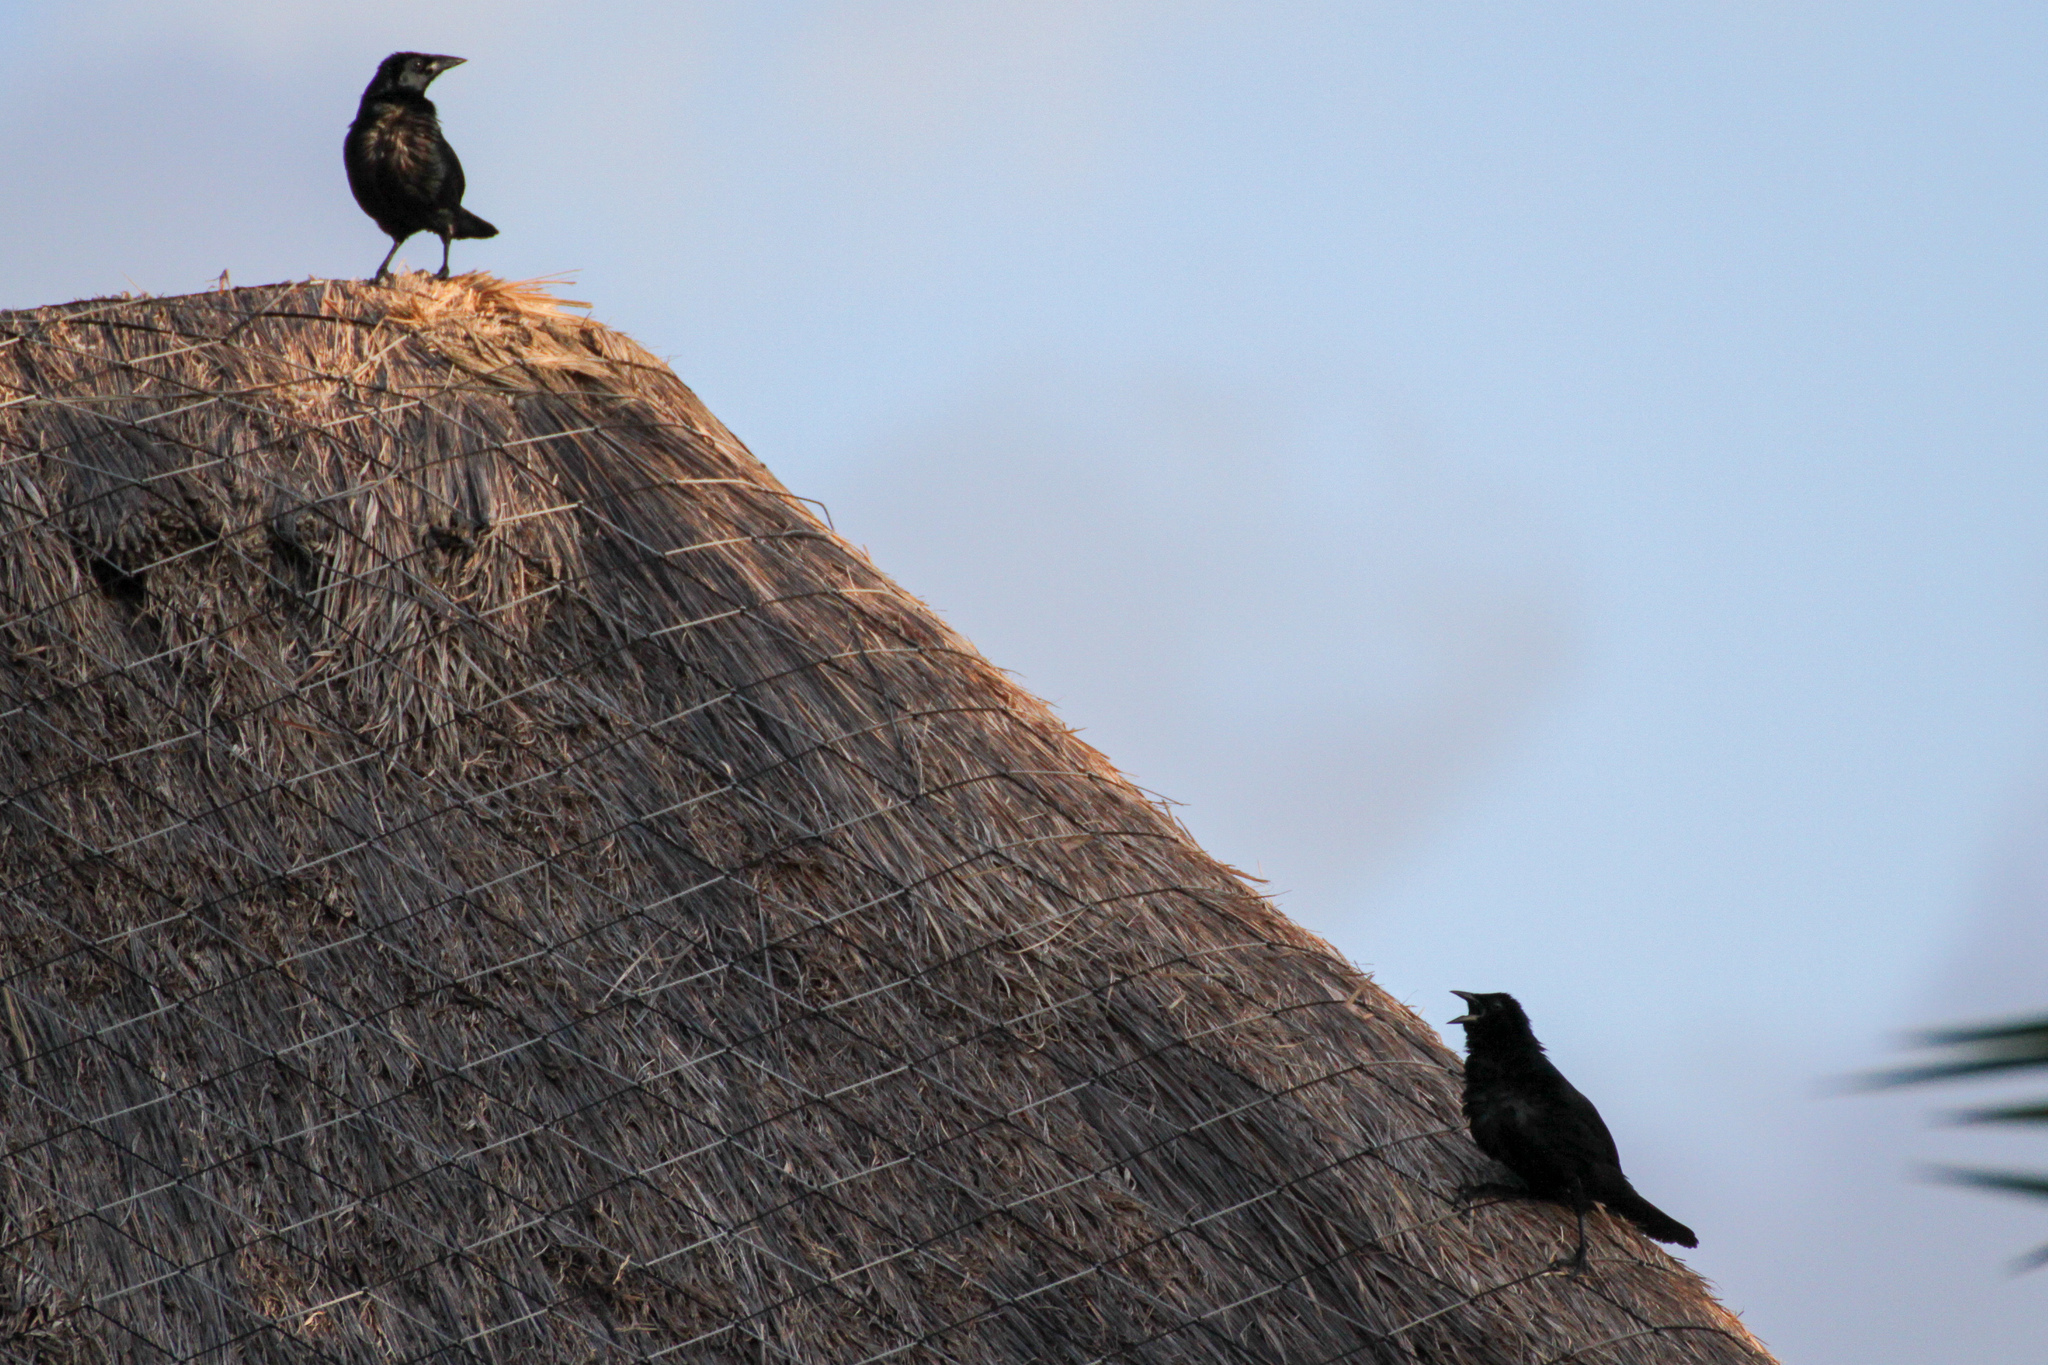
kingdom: Animalia
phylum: Chordata
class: Aves
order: Passeriformes
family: Icteridae
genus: Dives
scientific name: Dives dives
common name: Melodious blackbird
